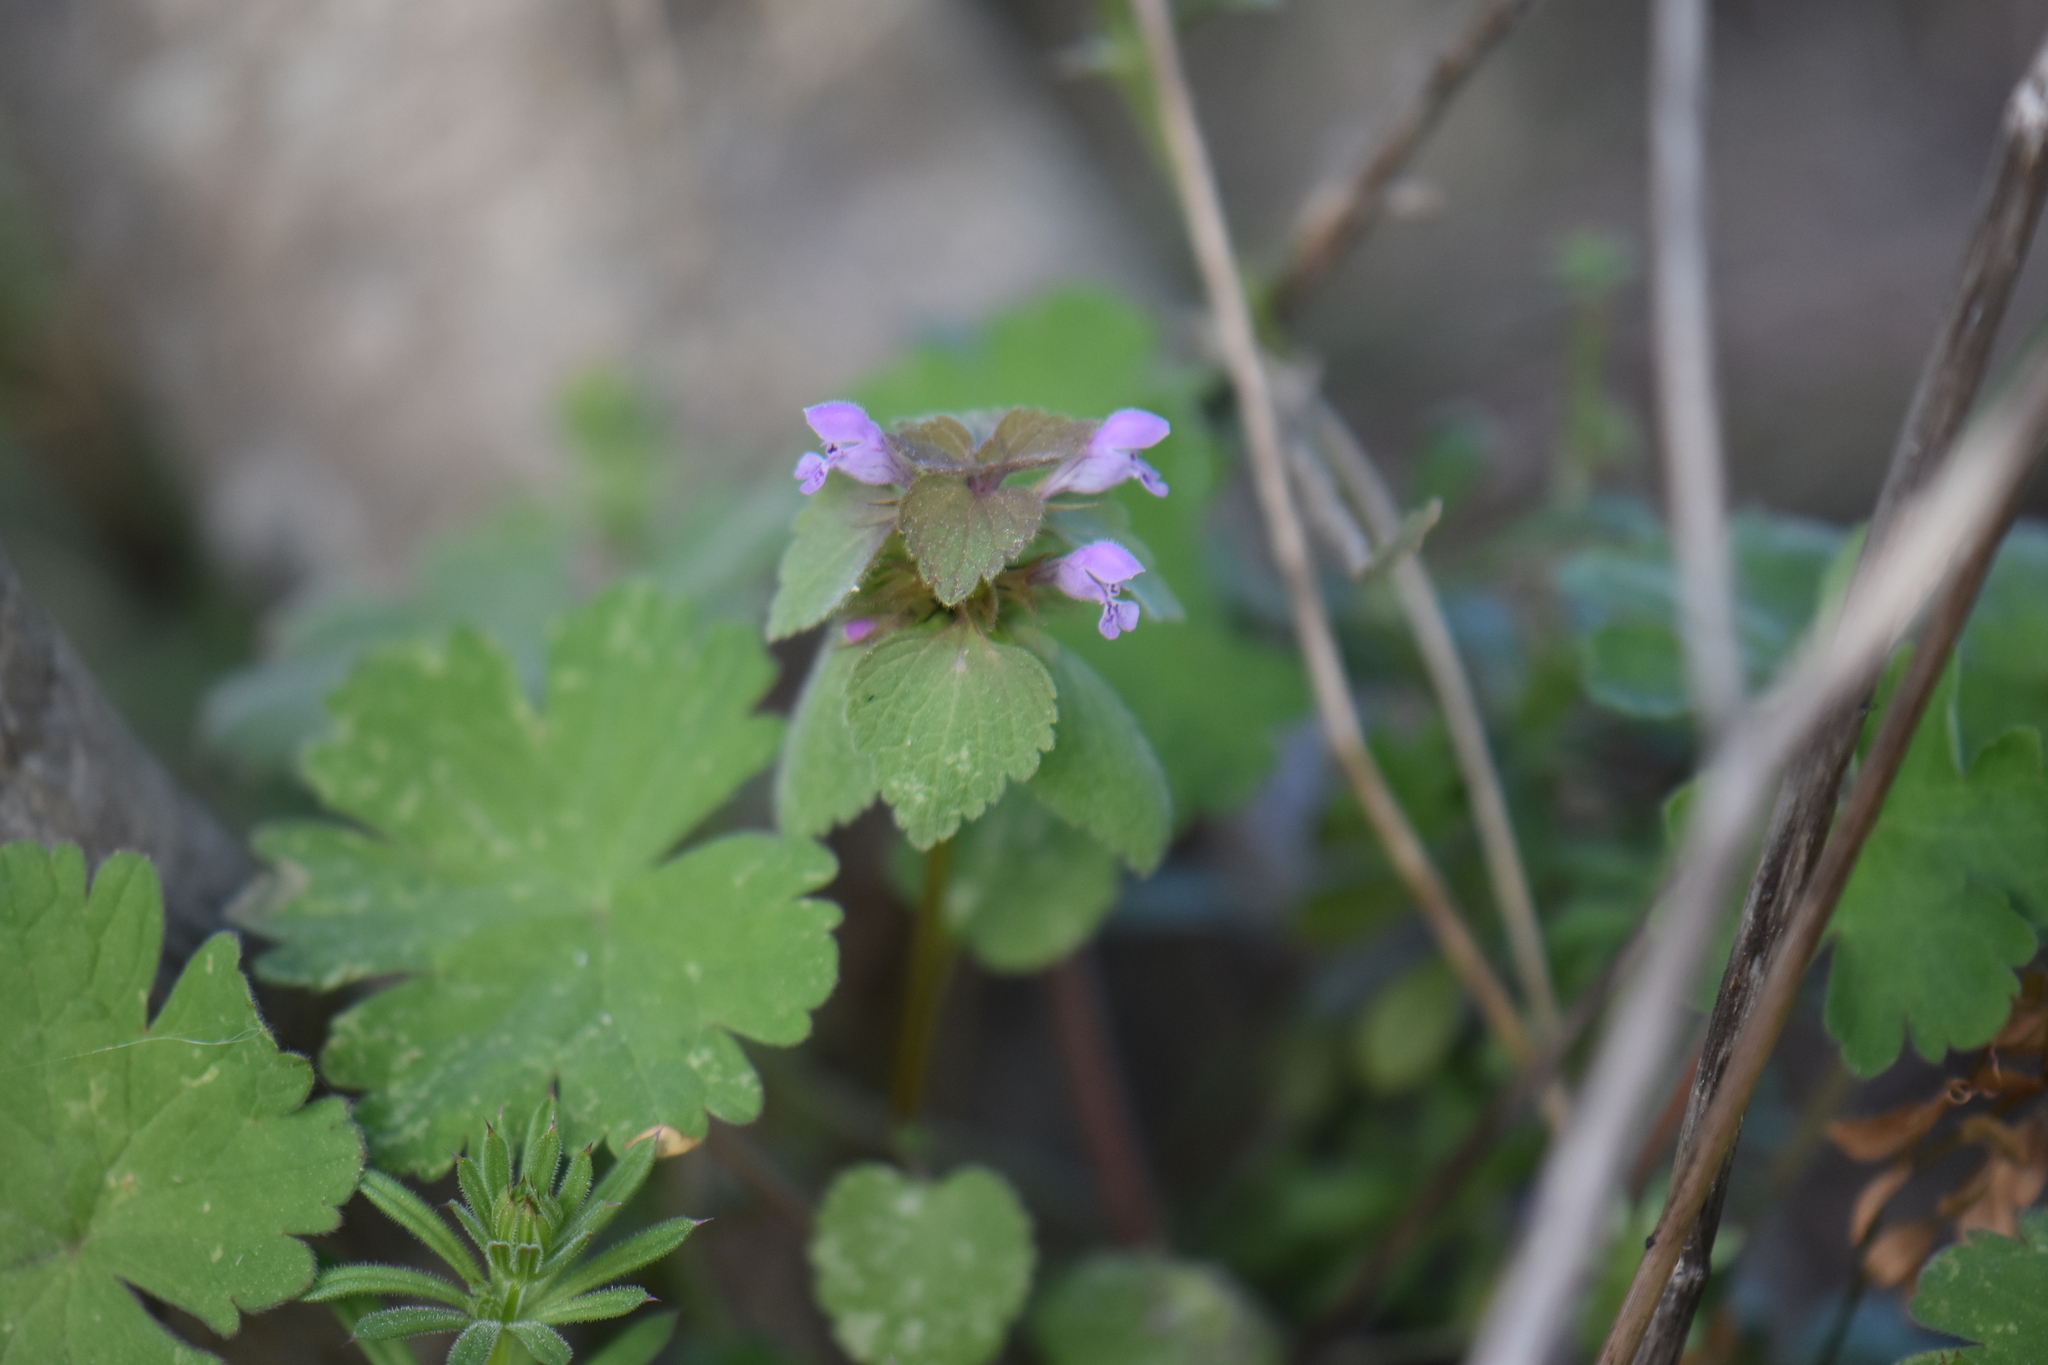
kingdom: Plantae
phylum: Tracheophyta
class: Magnoliopsida
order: Lamiales
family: Lamiaceae
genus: Lamium
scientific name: Lamium purpureum
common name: Red dead-nettle
